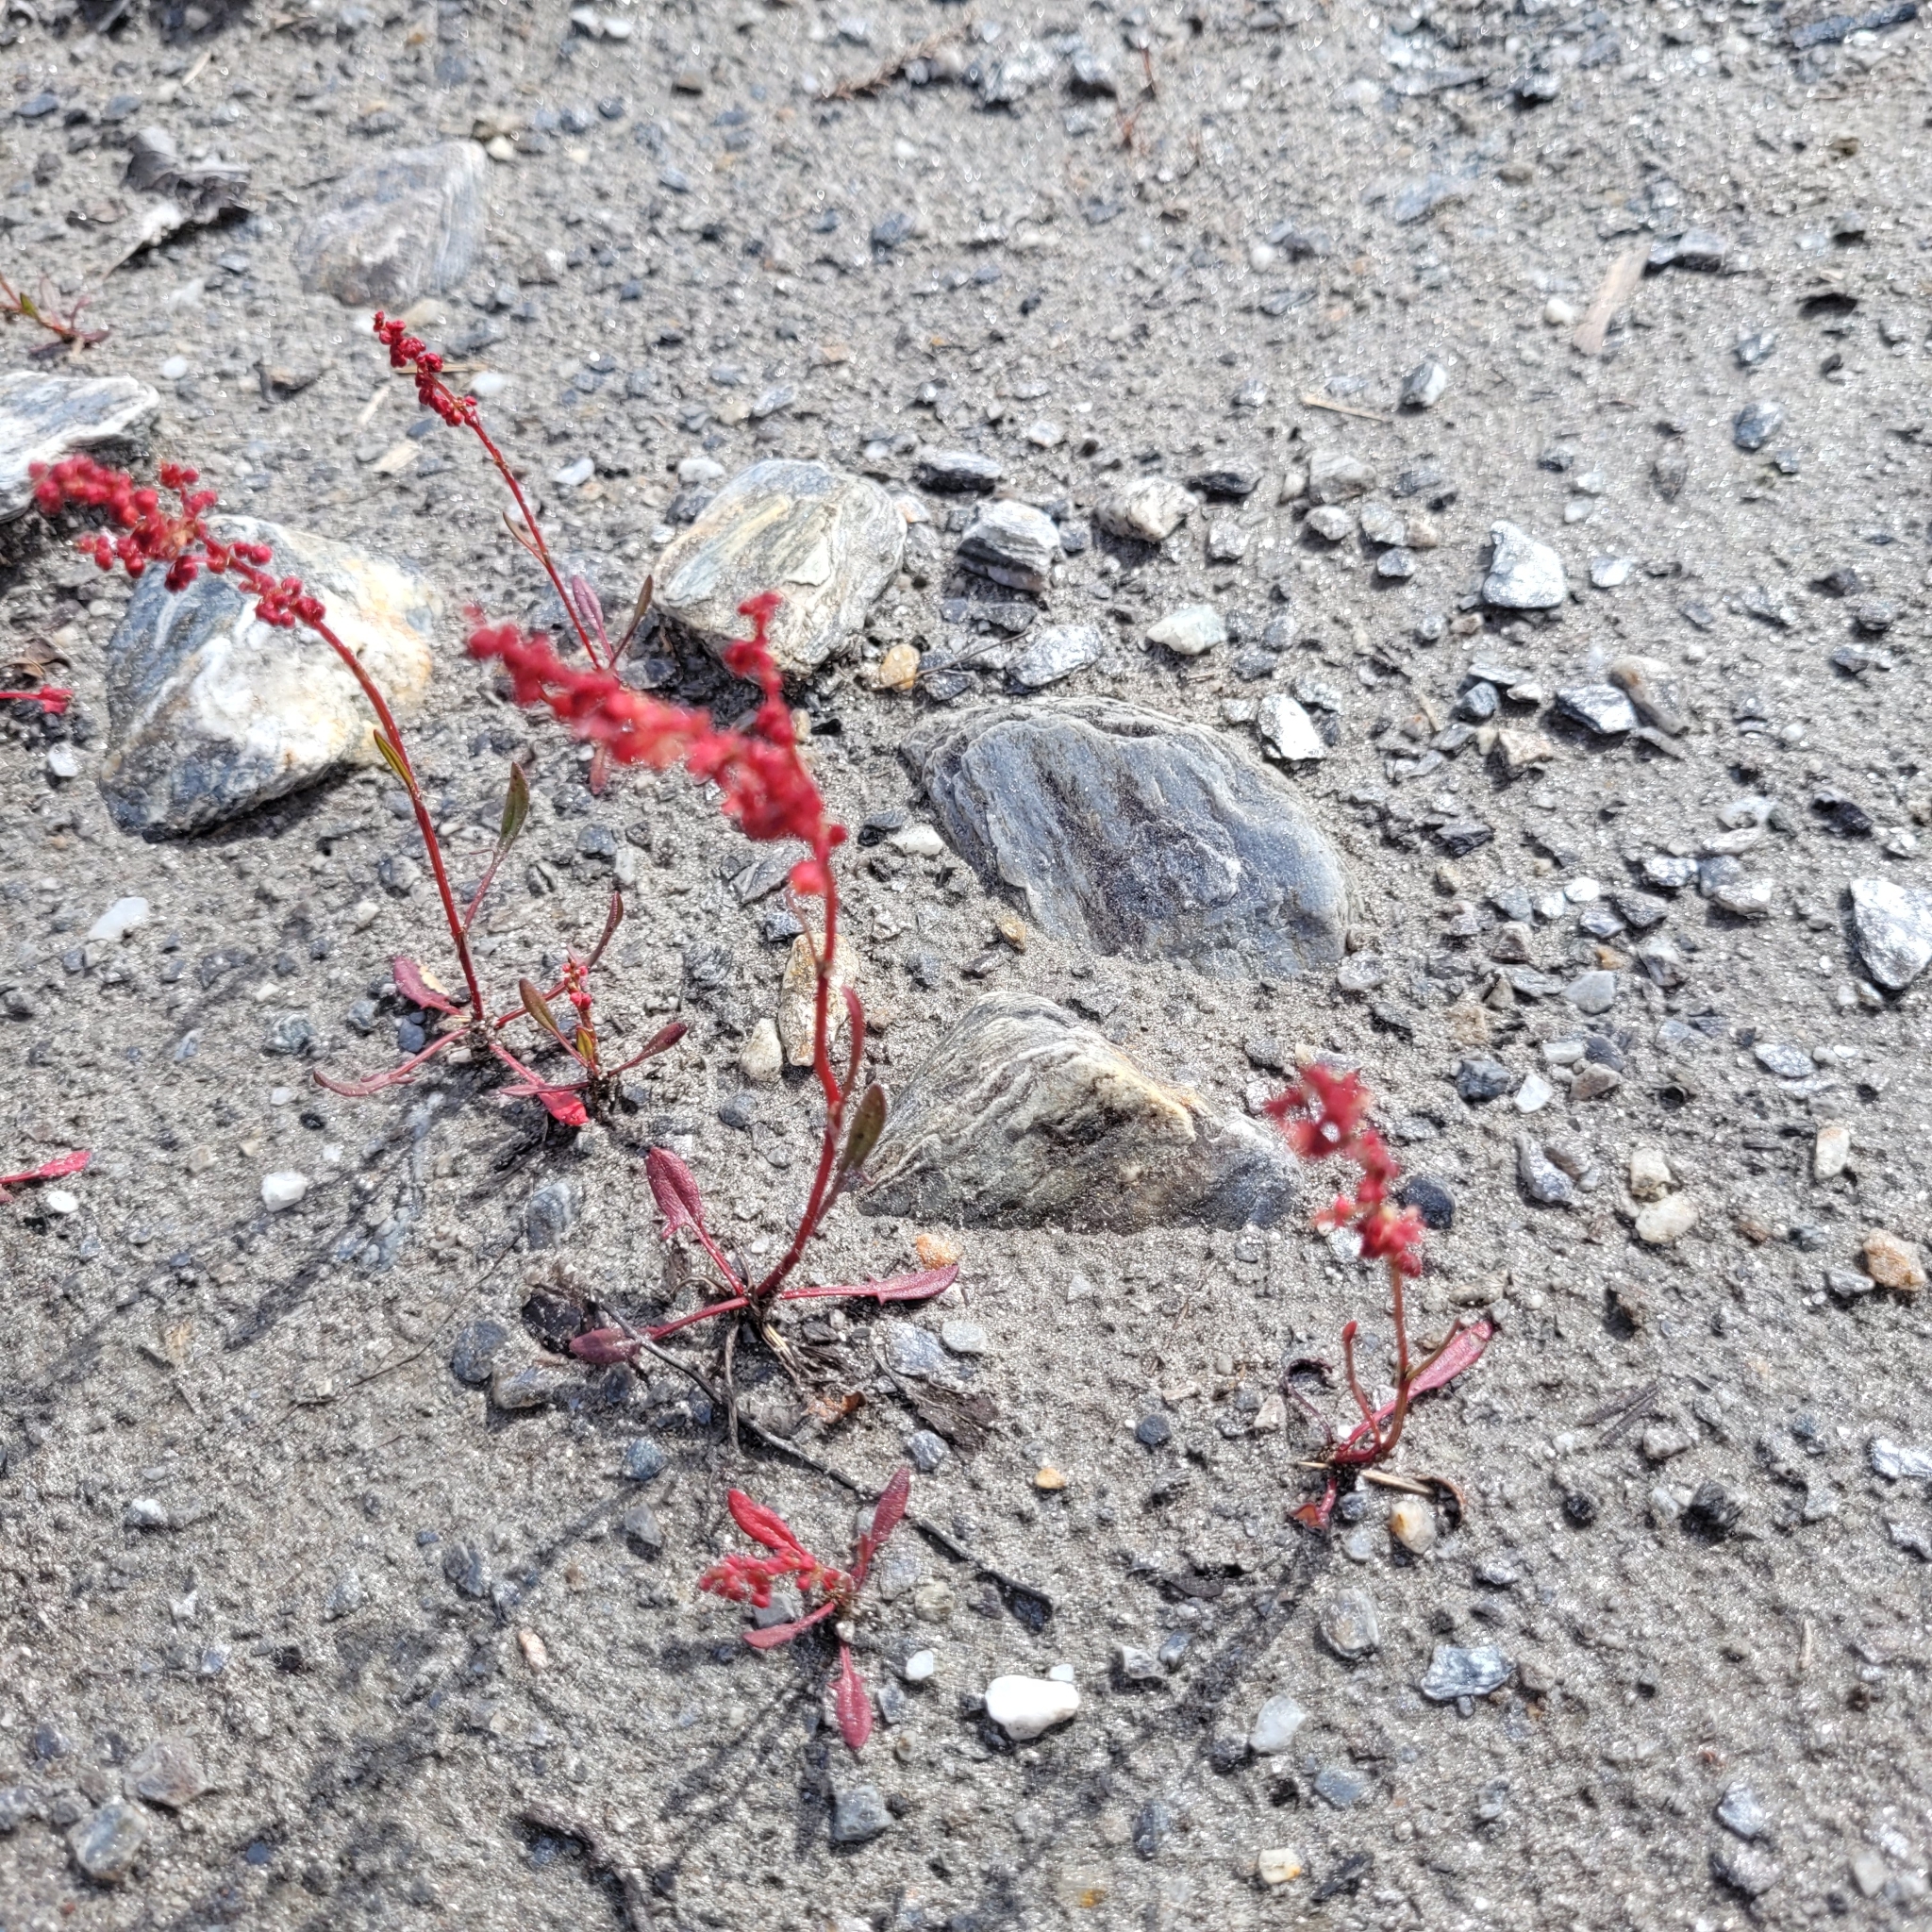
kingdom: Plantae
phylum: Tracheophyta
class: Magnoliopsida
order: Caryophyllales
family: Polygonaceae
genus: Rumex
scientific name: Rumex acetosella
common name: Common sheep sorrel
